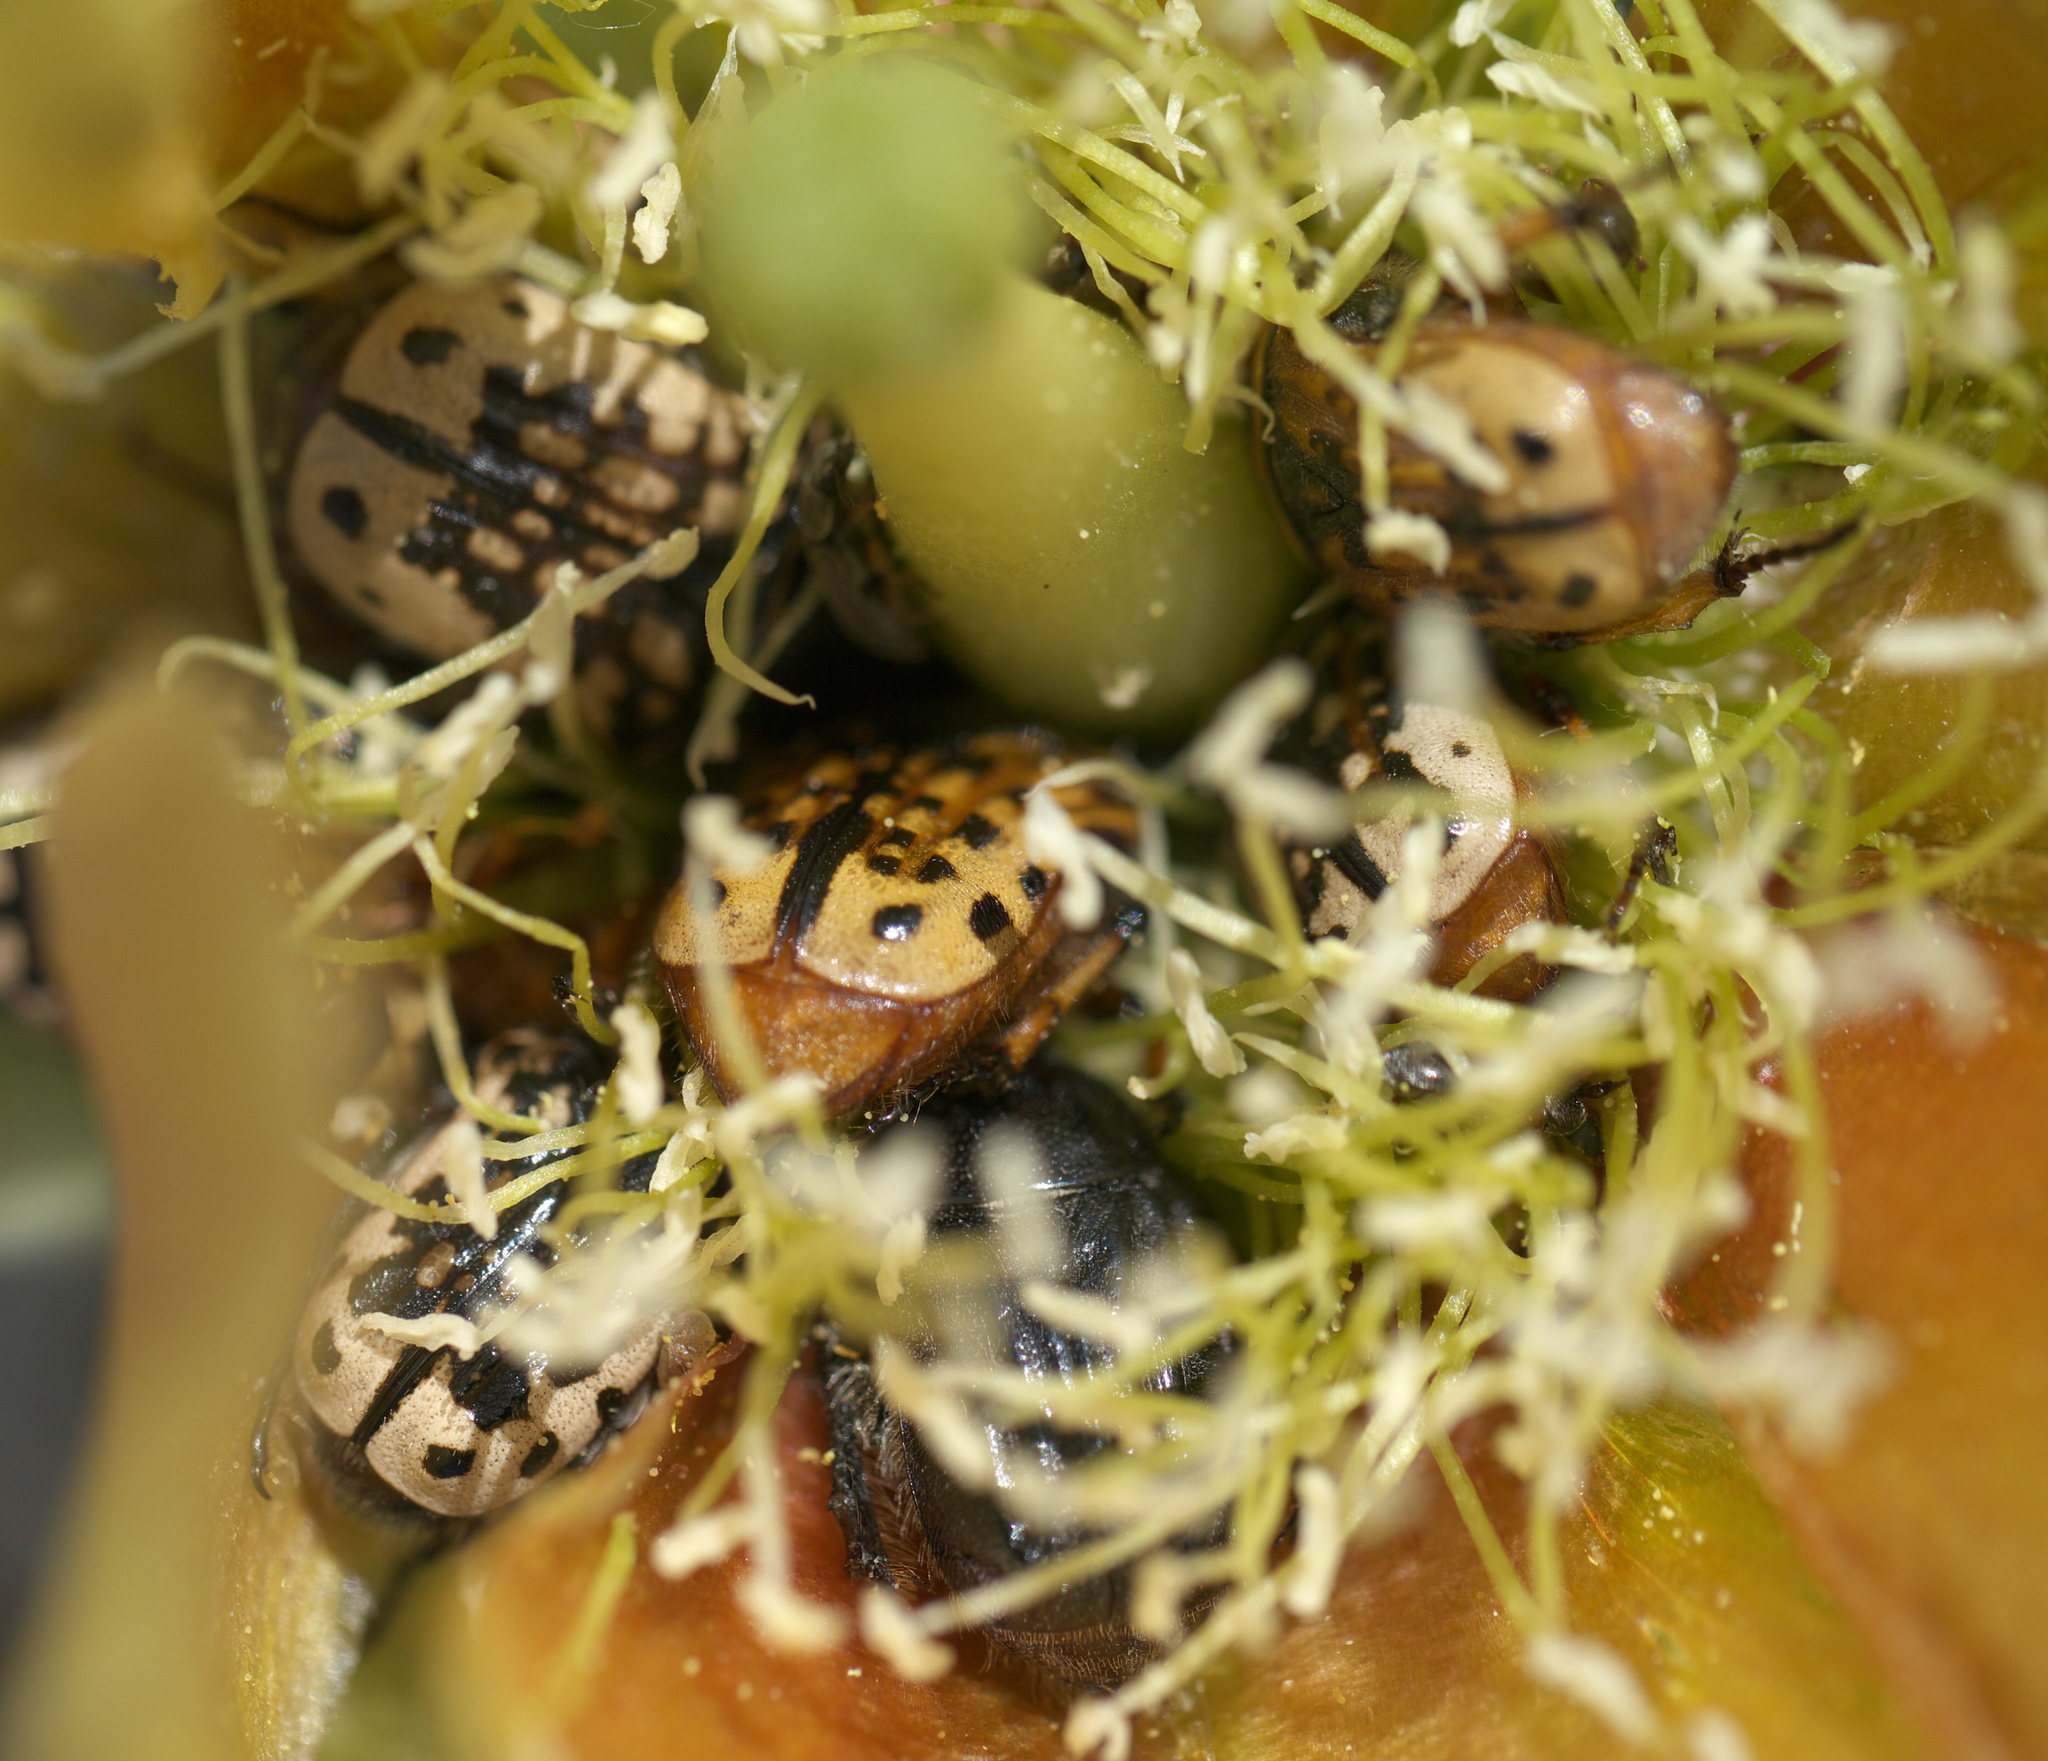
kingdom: Animalia
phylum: Arthropoda
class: Insecta
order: Coleoptera
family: Scarabaeidae
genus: Euphoria
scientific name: Euphoria kernii
